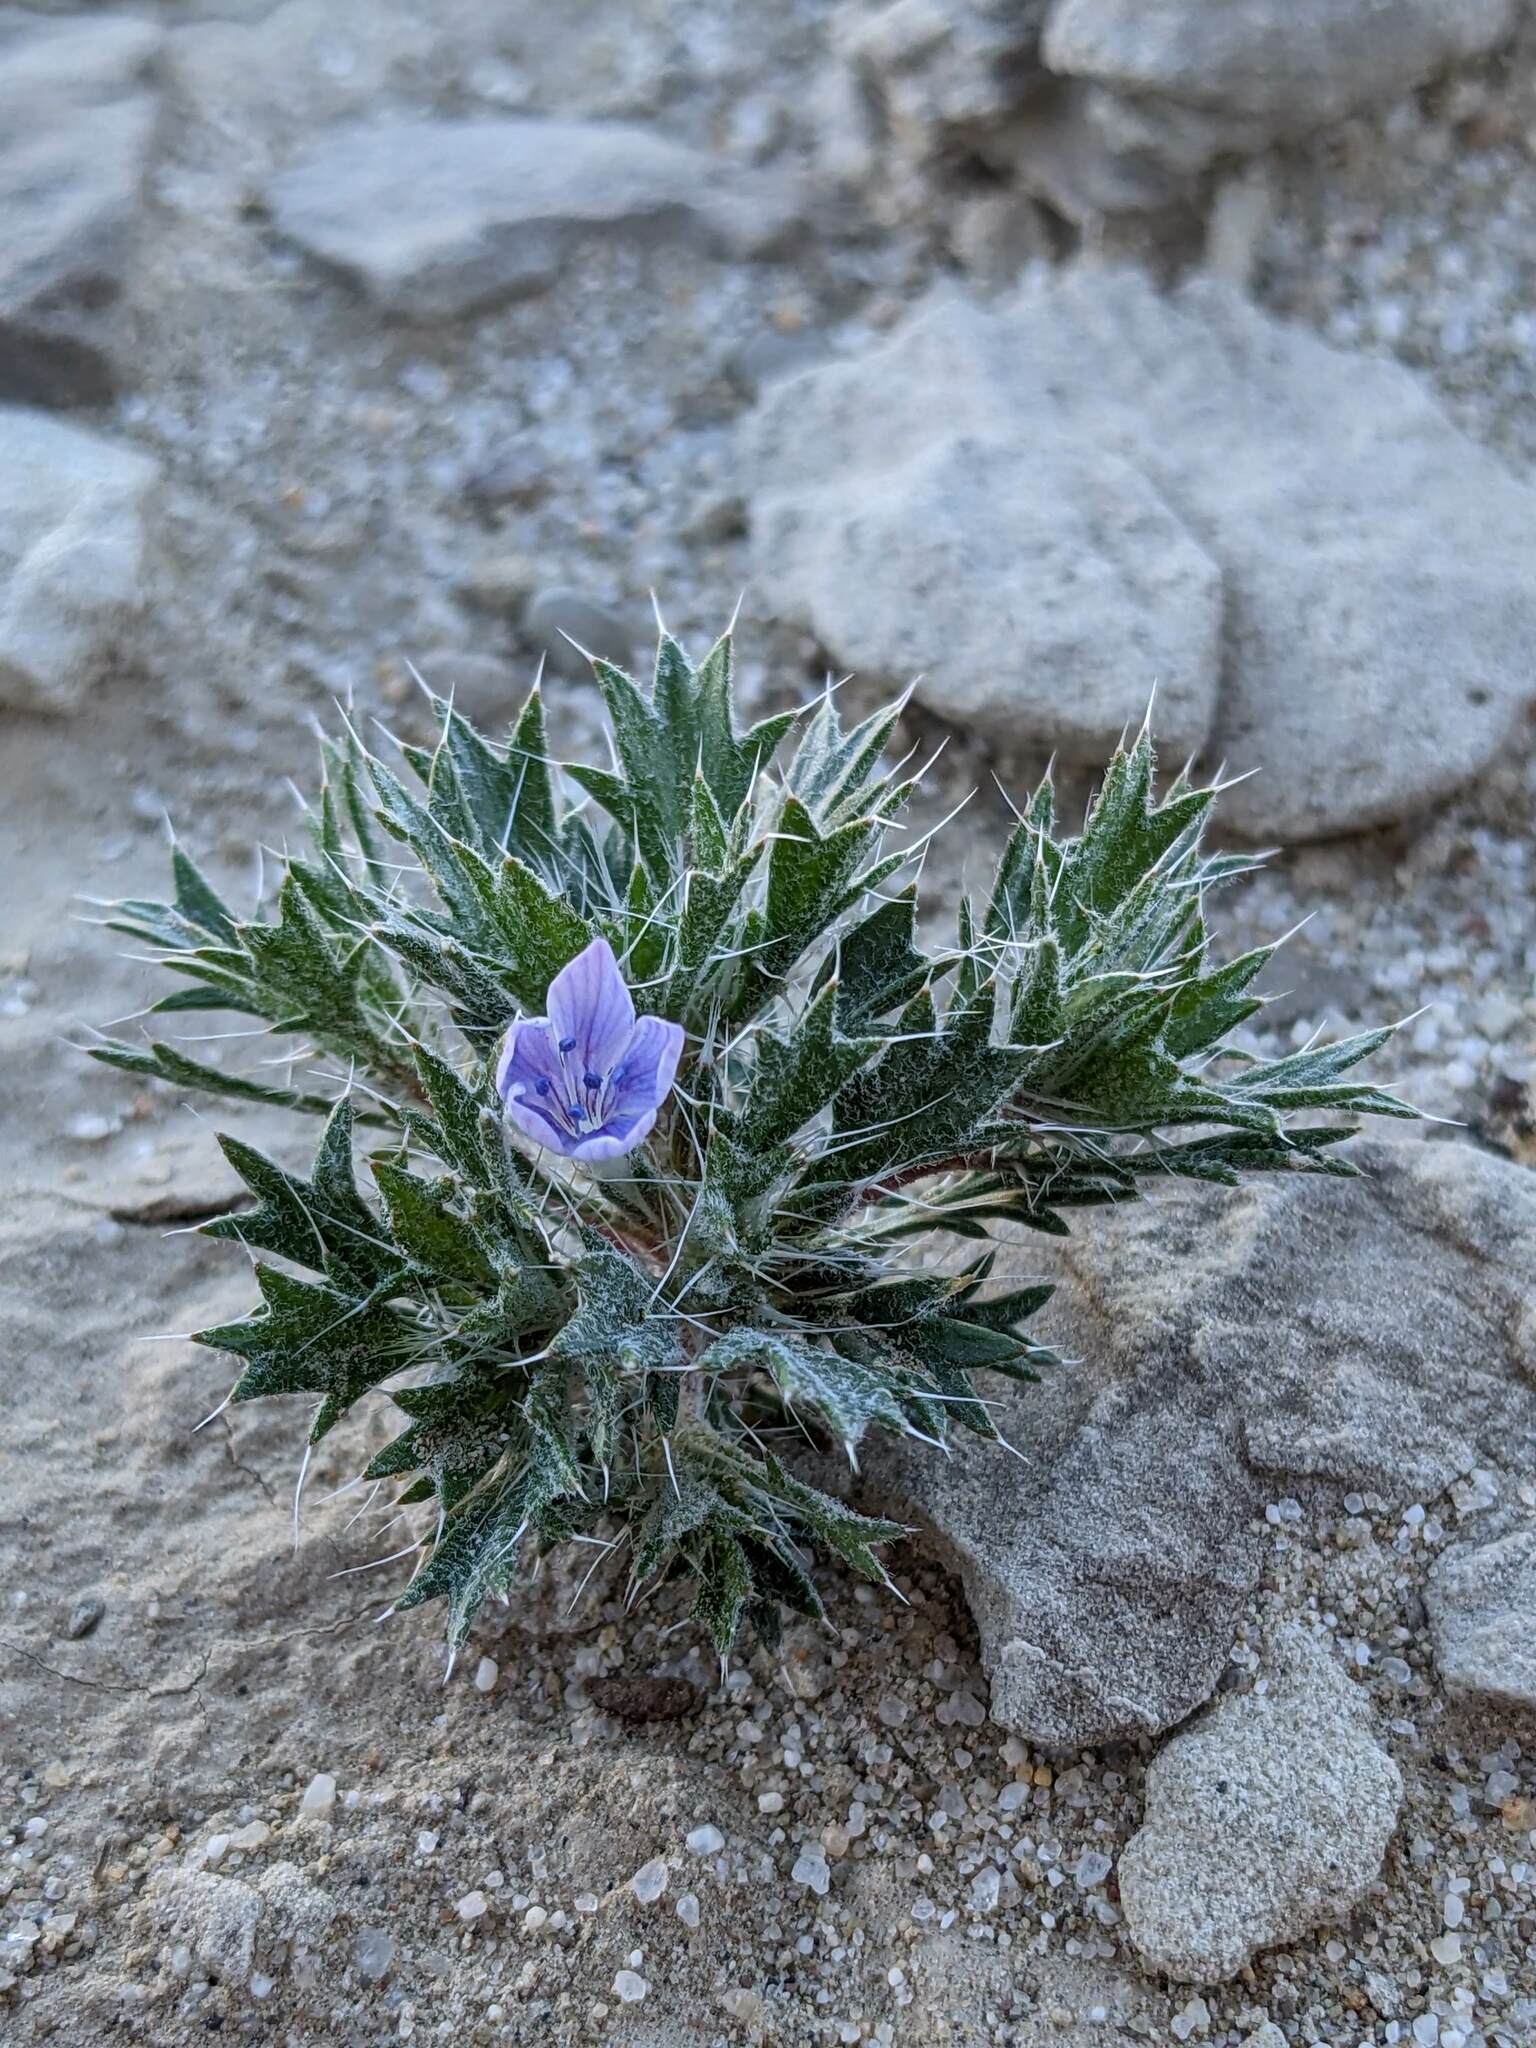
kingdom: Plantae
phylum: Tracheophyta
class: Magnoliopsida
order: Ericales
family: Polemoniaceae
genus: Langloisia
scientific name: Langloisia setosissima
